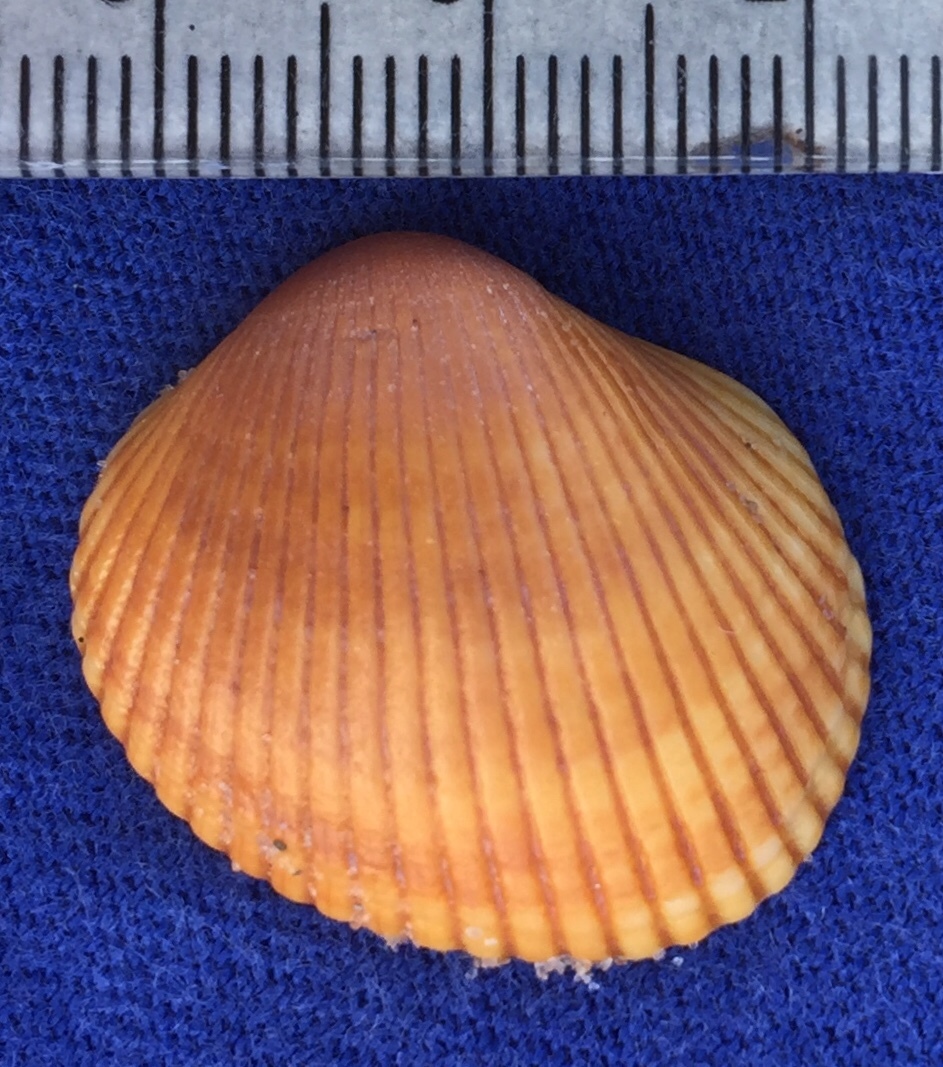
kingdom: Animalia
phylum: Mollusca
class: Bivalvia
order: Arcida
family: Arcidae
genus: Lunarca
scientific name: Lunarca ovalis
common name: Blood ark
